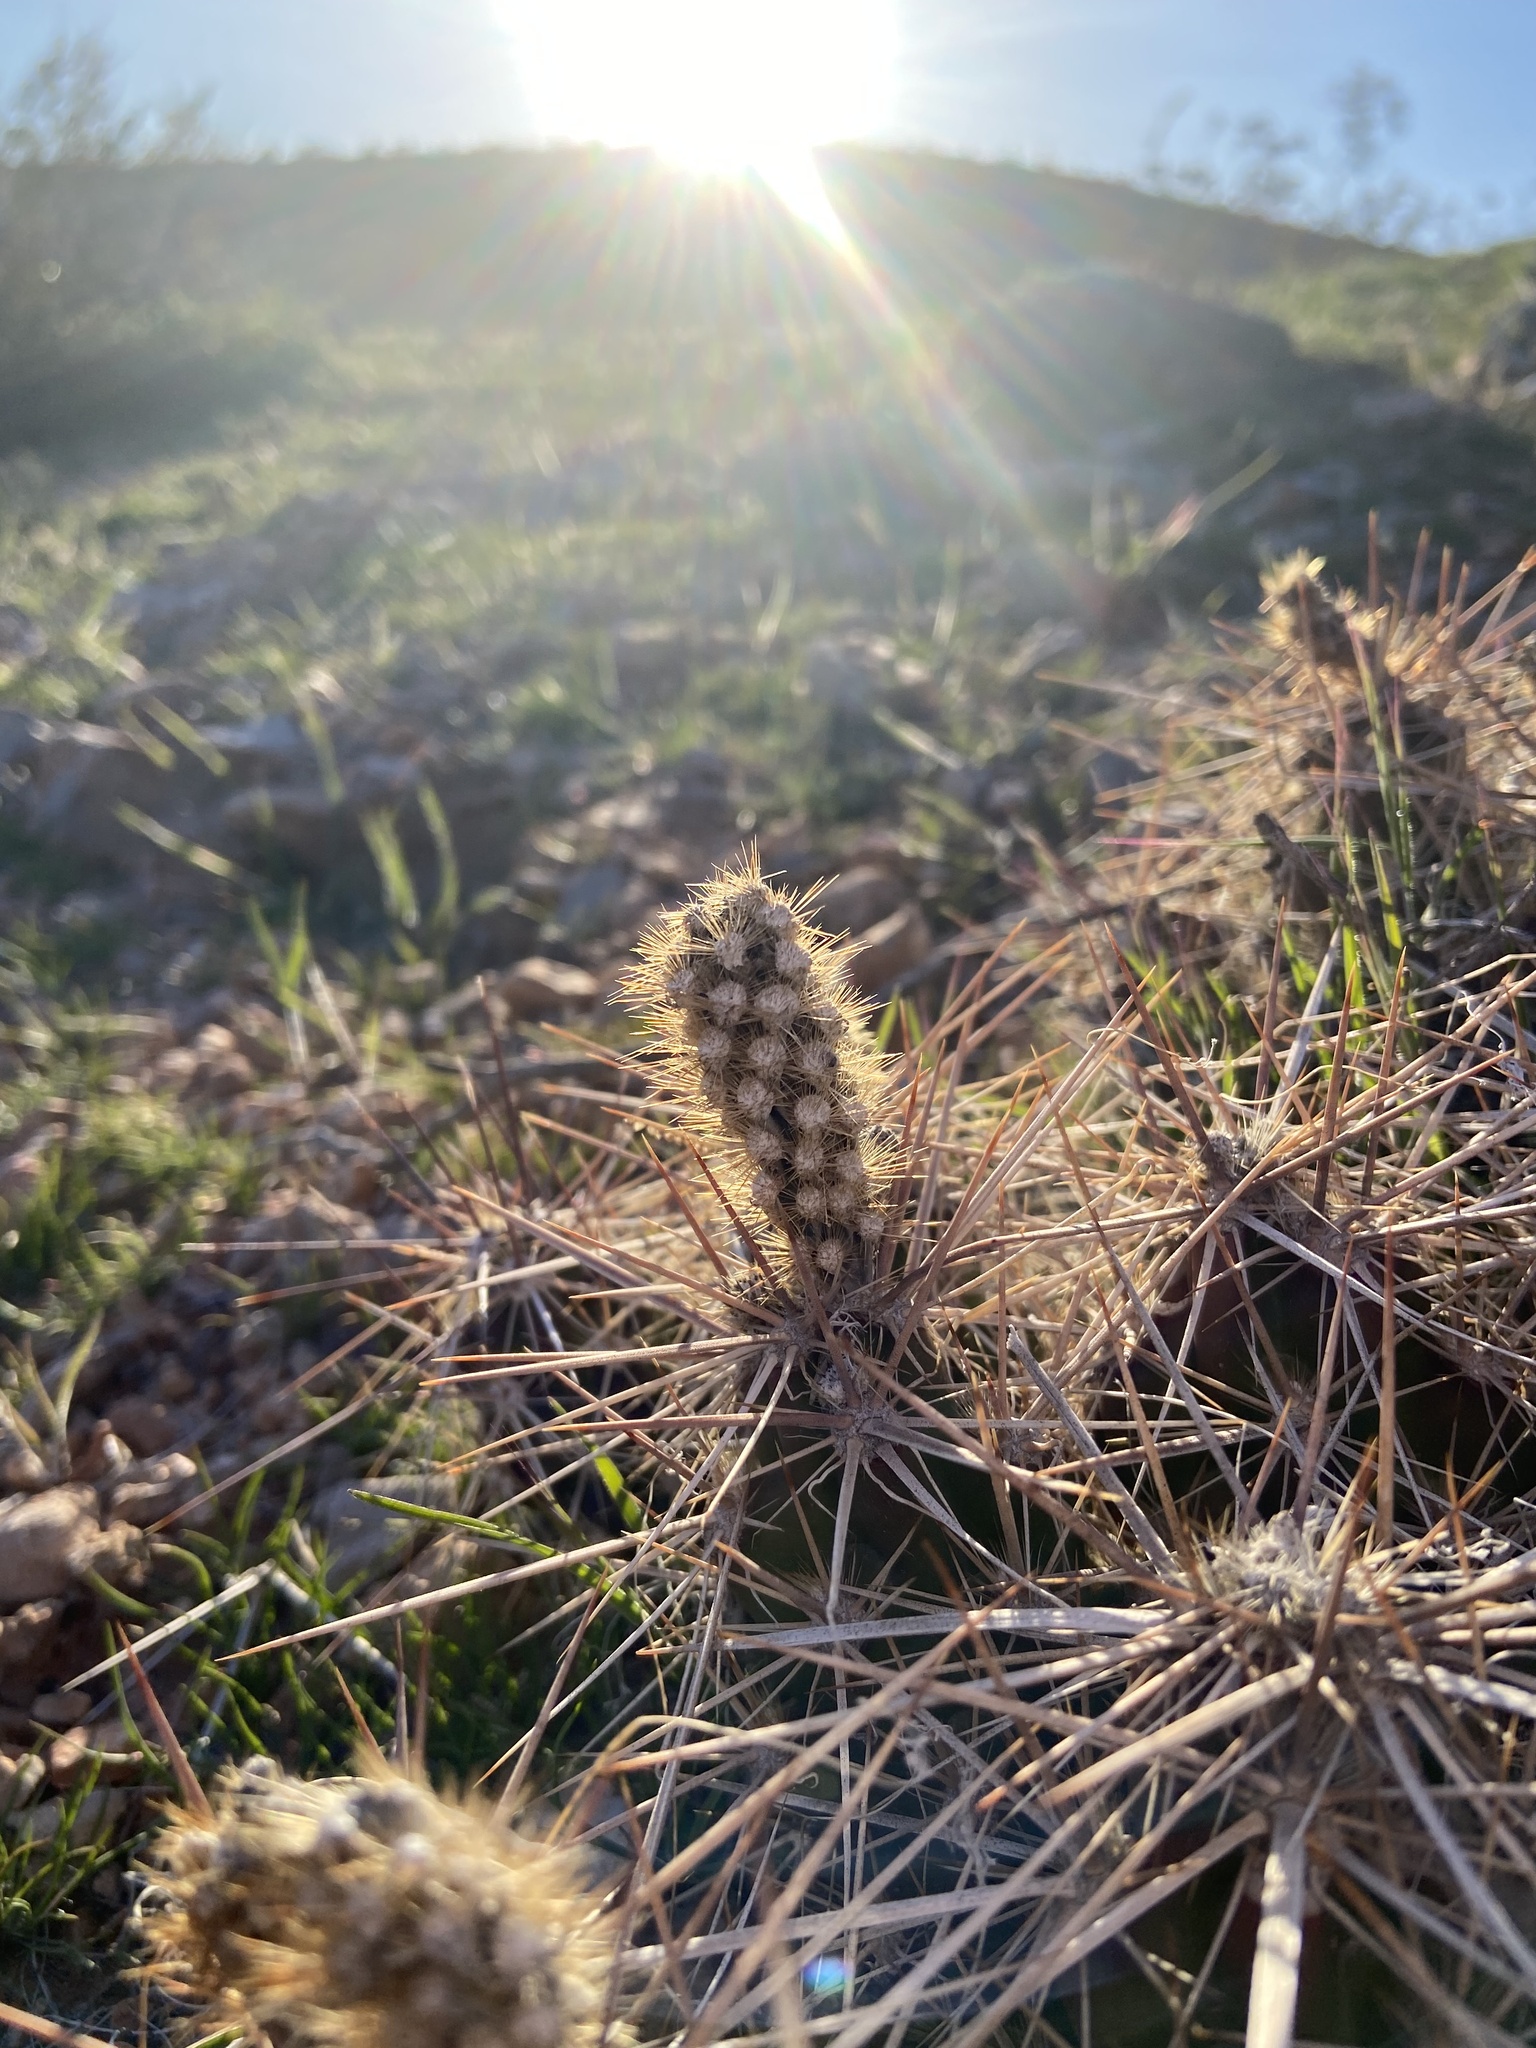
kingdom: Plantae
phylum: Tracheophyta
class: Magnoliopsida
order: Caryophyllales
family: Cactaceae
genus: Grusonia
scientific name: Grusonia parishiorum
